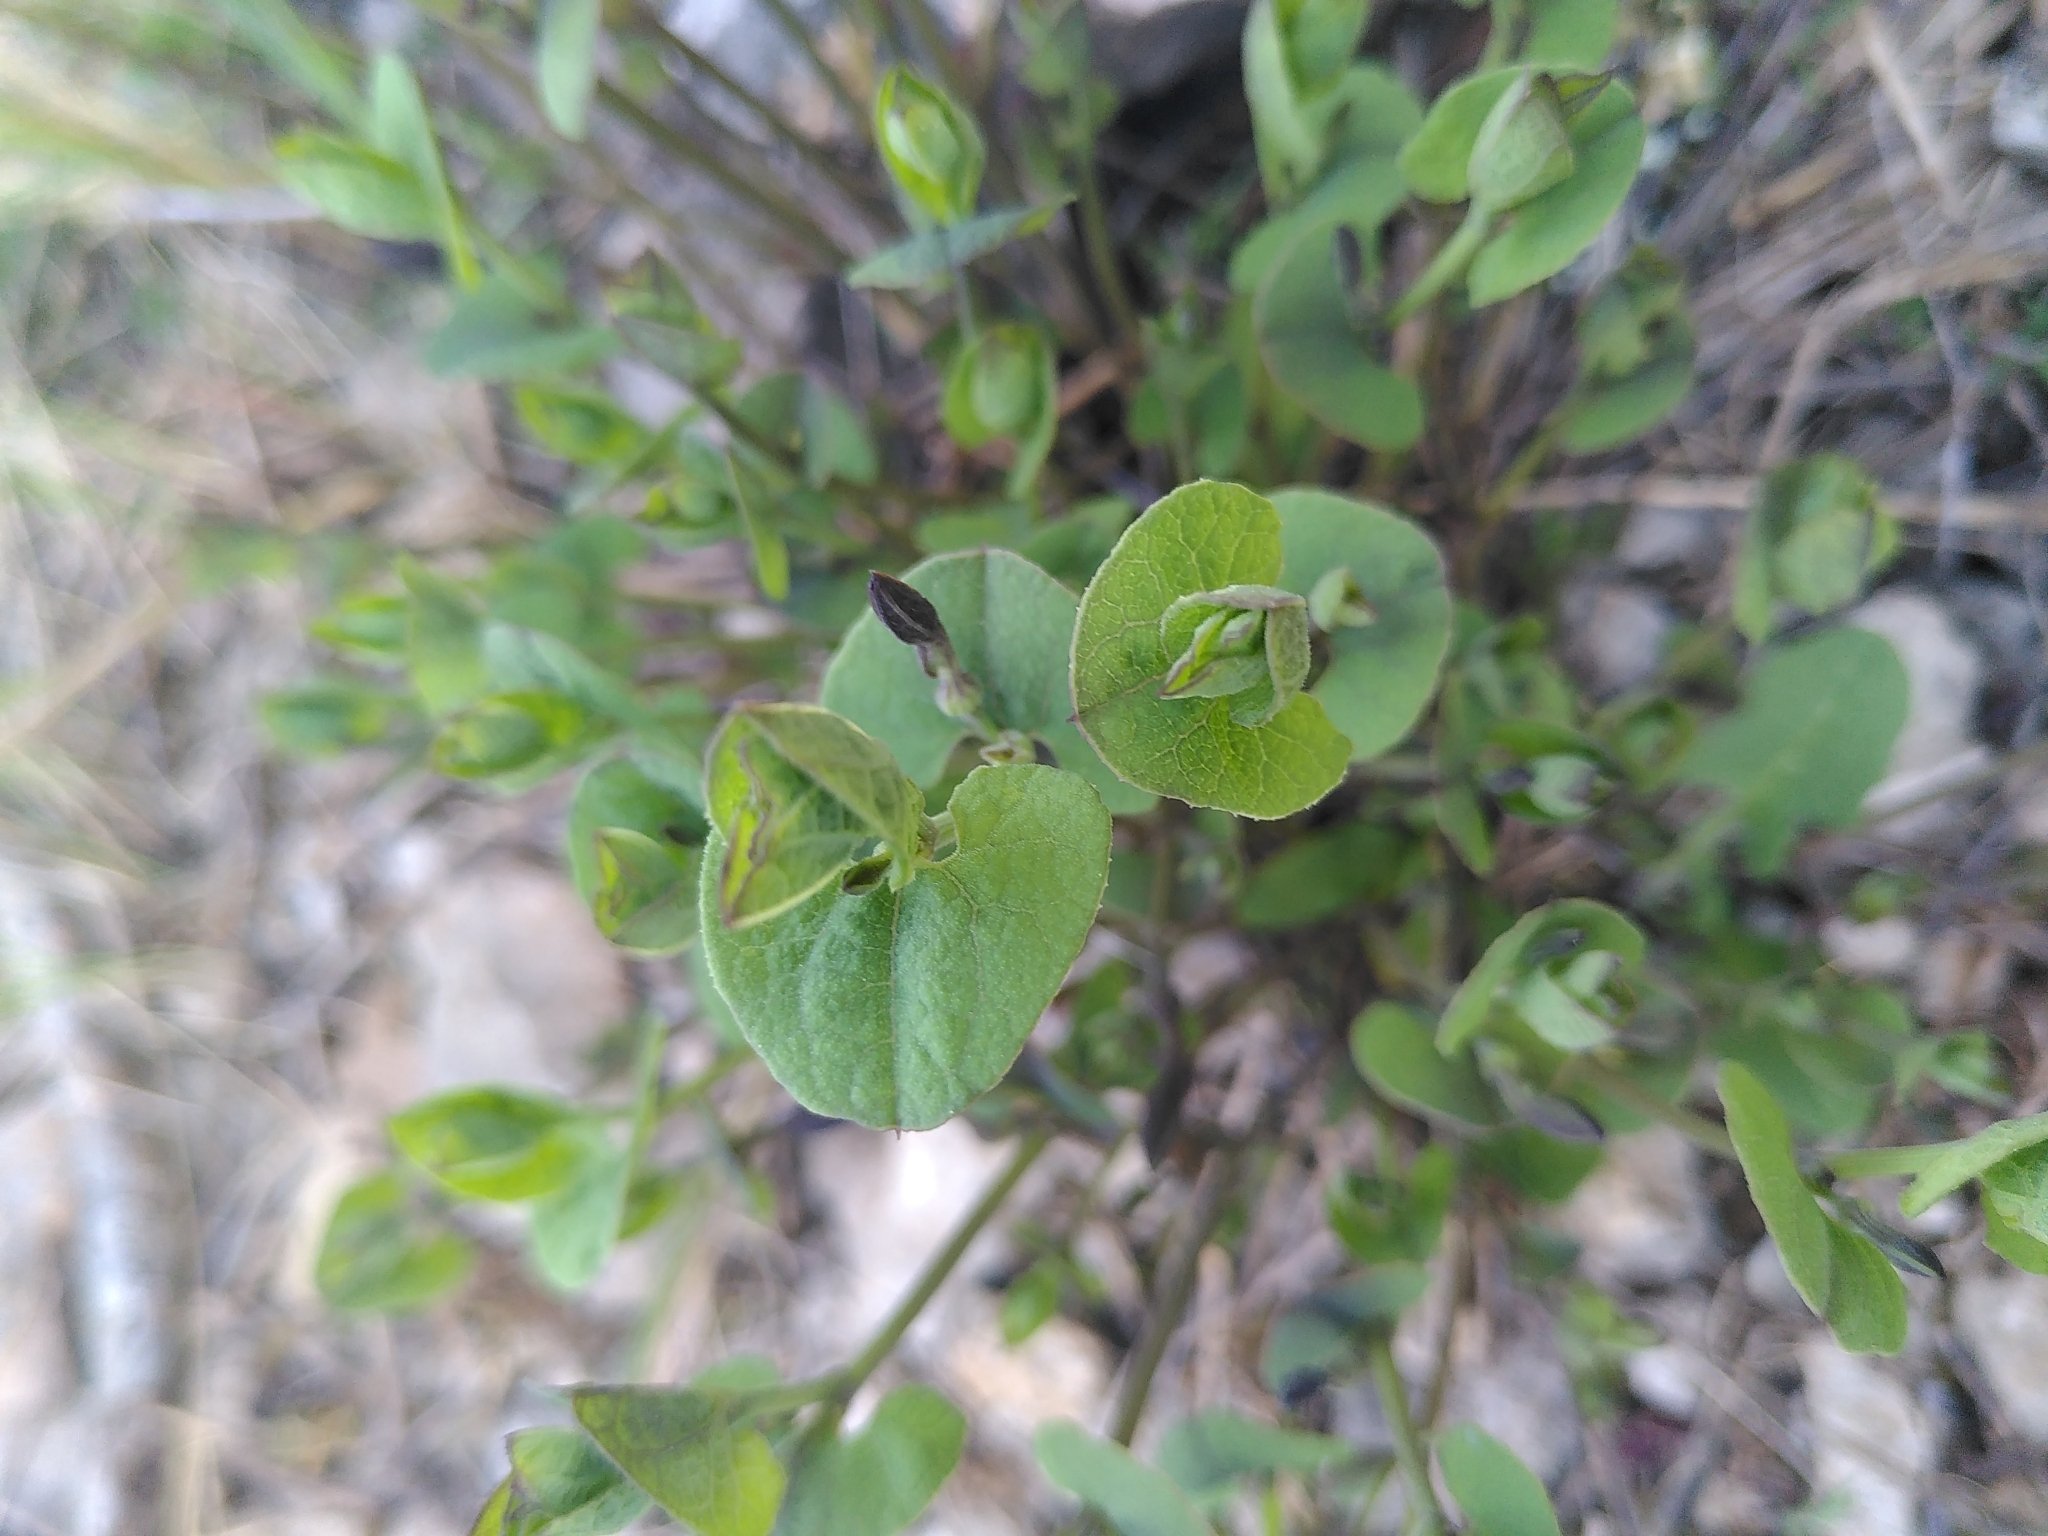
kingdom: Plantae
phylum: Tracheophyta
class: Magnoliopsida
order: Piperales
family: Aristolochiaceae
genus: Aristolochia
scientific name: Aristolochia pistolochia
